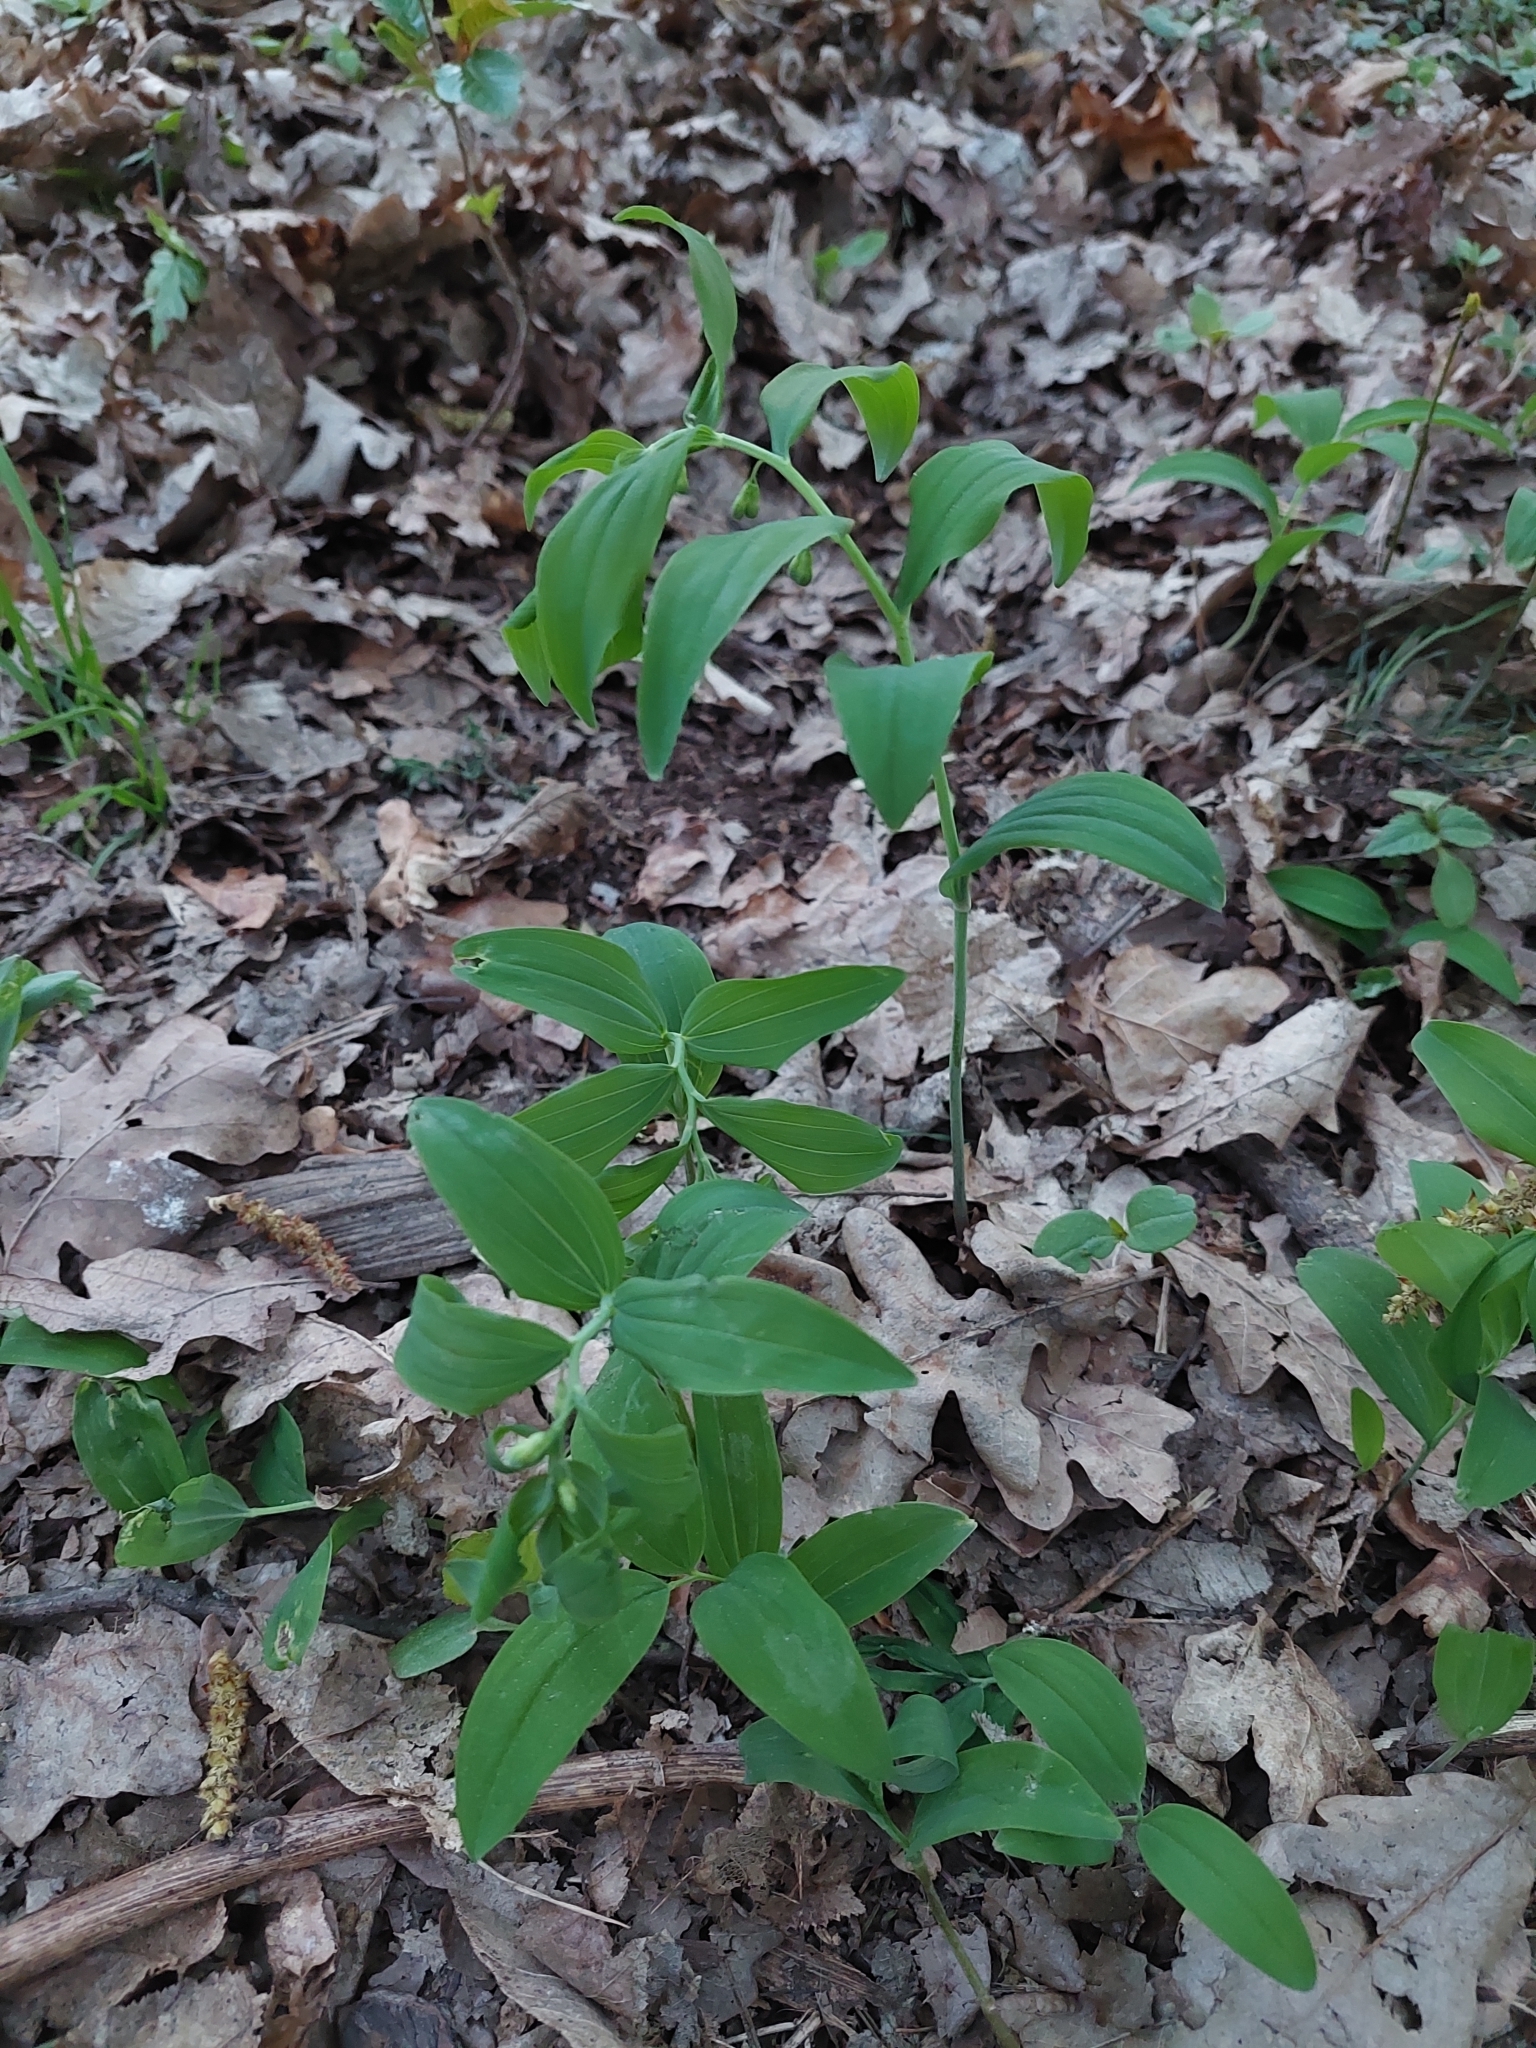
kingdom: Plantae
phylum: Tracheophyta
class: Liliopsida
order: Asparagales
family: Asparagaceae
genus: Polygonatum
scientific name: Polygonatum multiflorum
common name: Solomon's-seal
